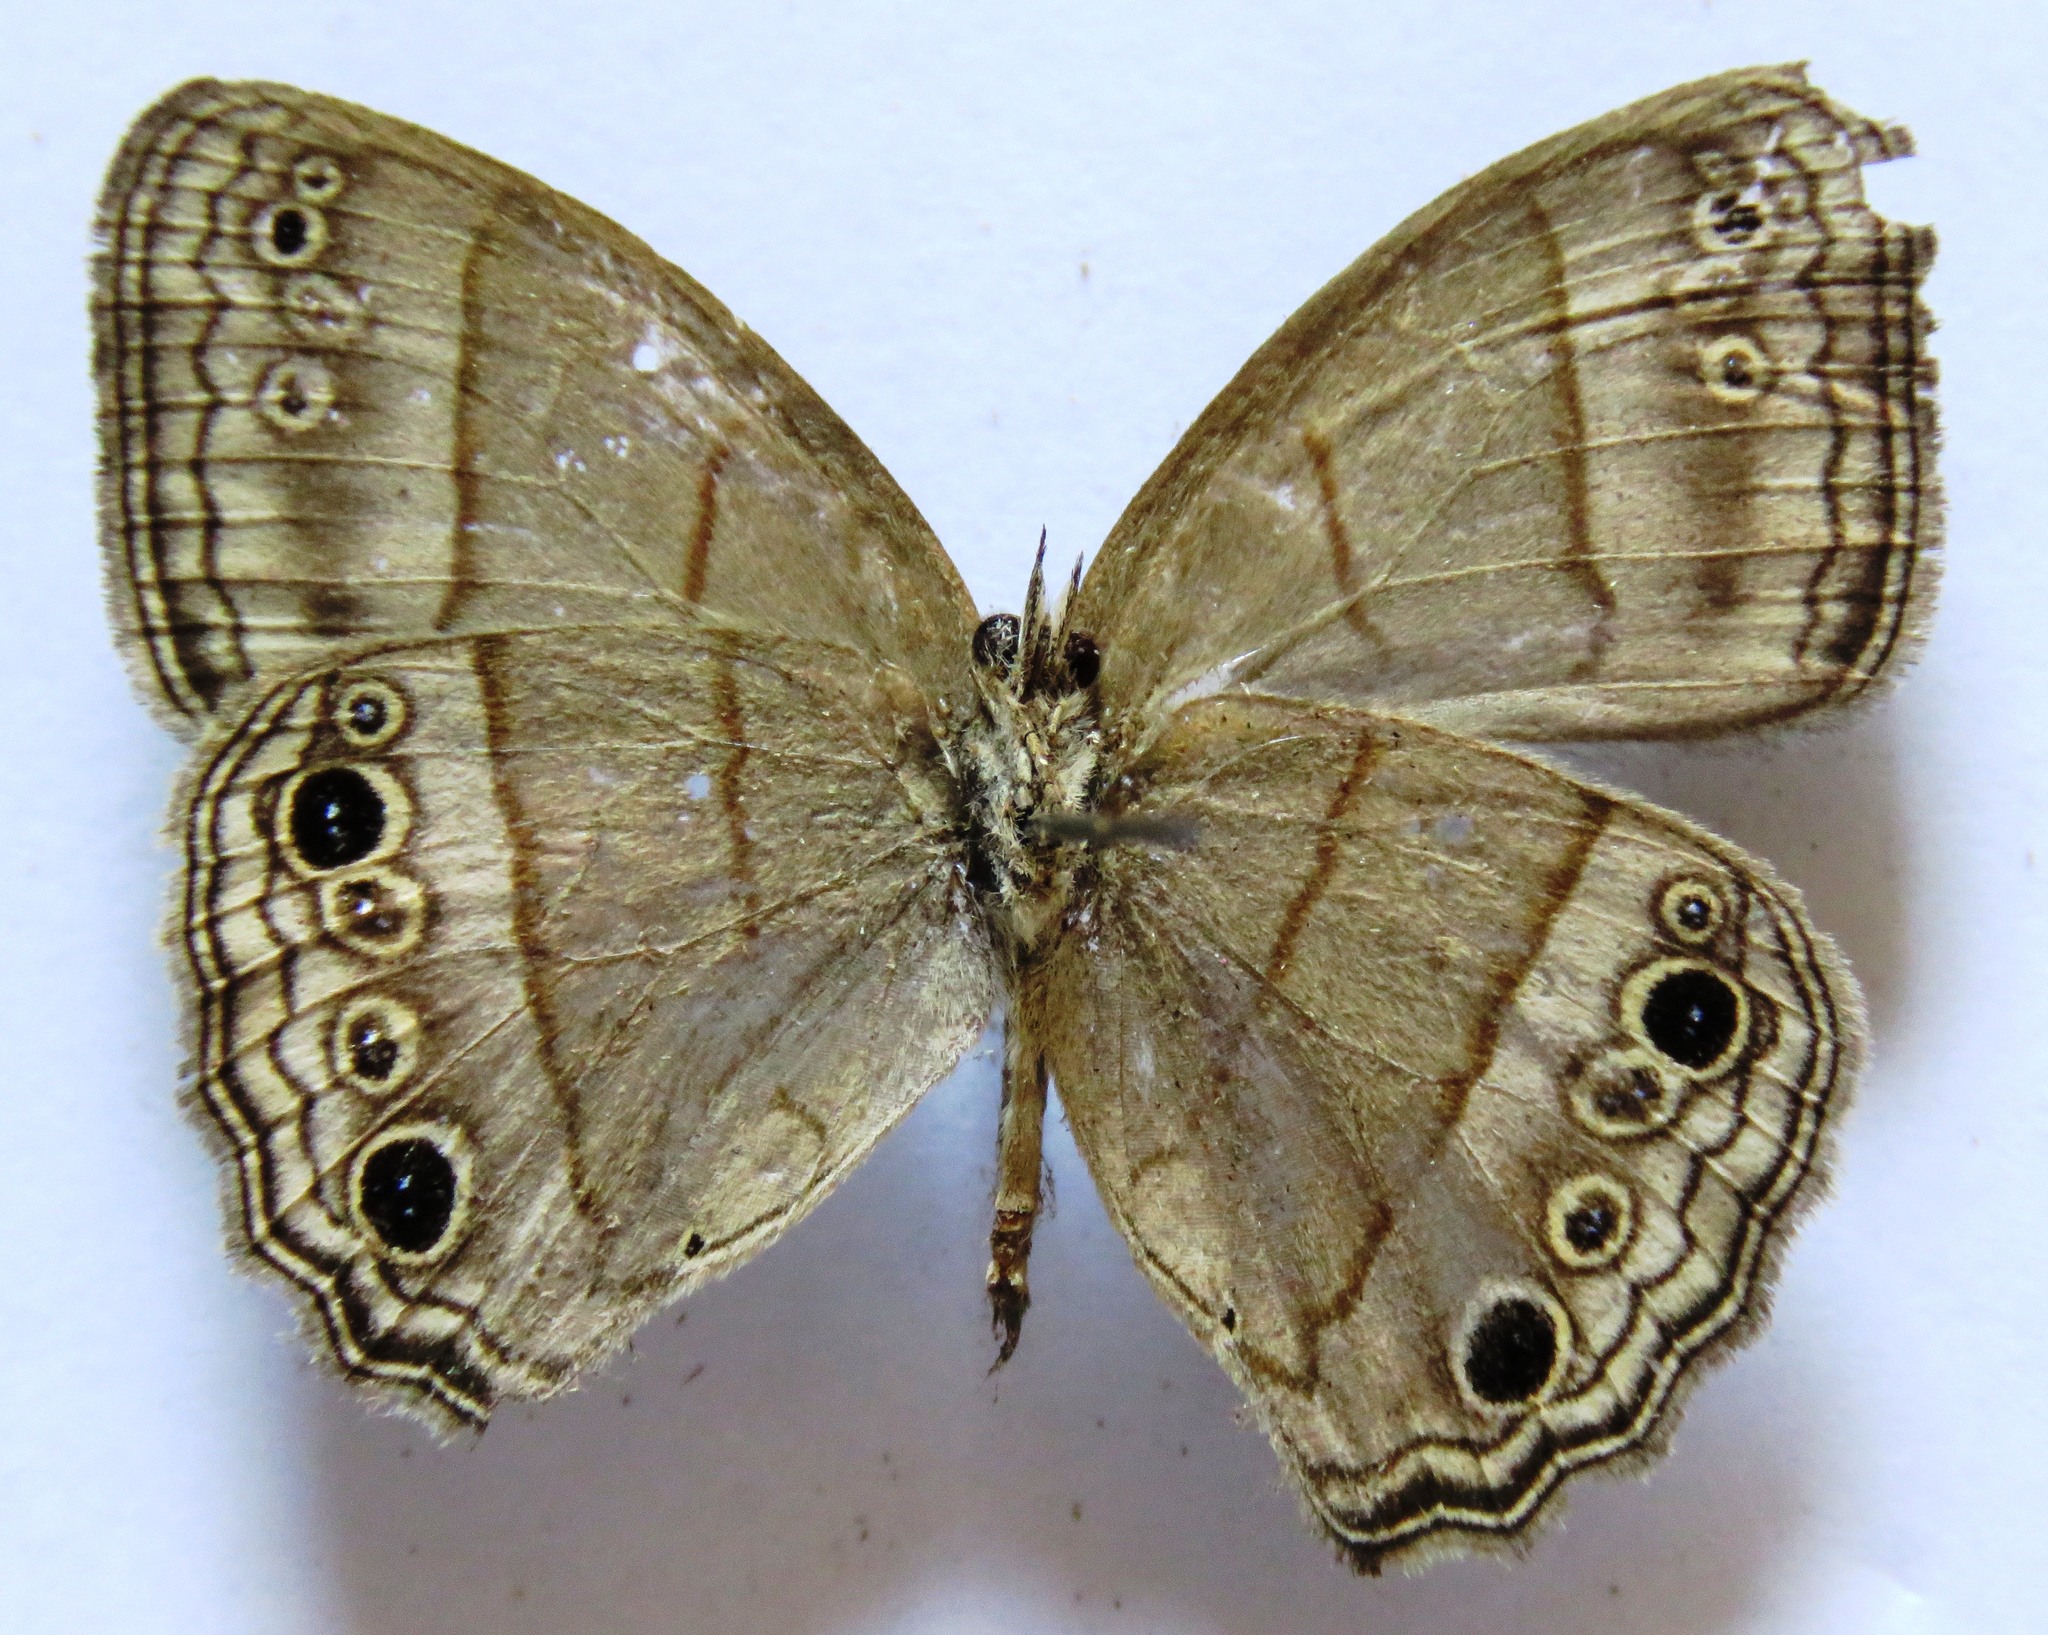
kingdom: Animalia
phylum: Arthropoda
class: Insecta
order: Lepidoptera
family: Nymphalidae
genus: Vareuptychia
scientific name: Vareuptychia similis
